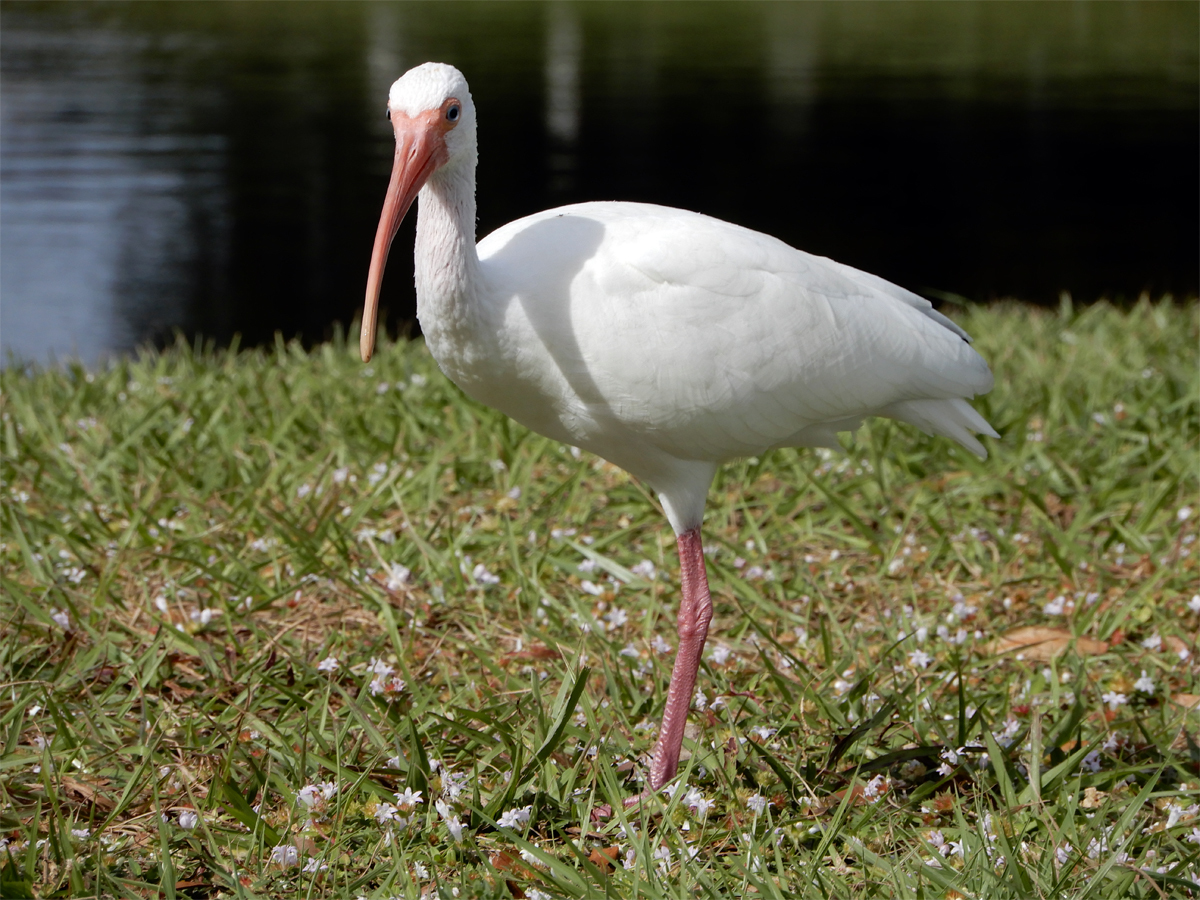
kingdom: Animalia
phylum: Chordata
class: Aves
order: Pelecaniformes
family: Threskiornithidae
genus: Eudocimus
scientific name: Eudocimus albus
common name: White ibis
